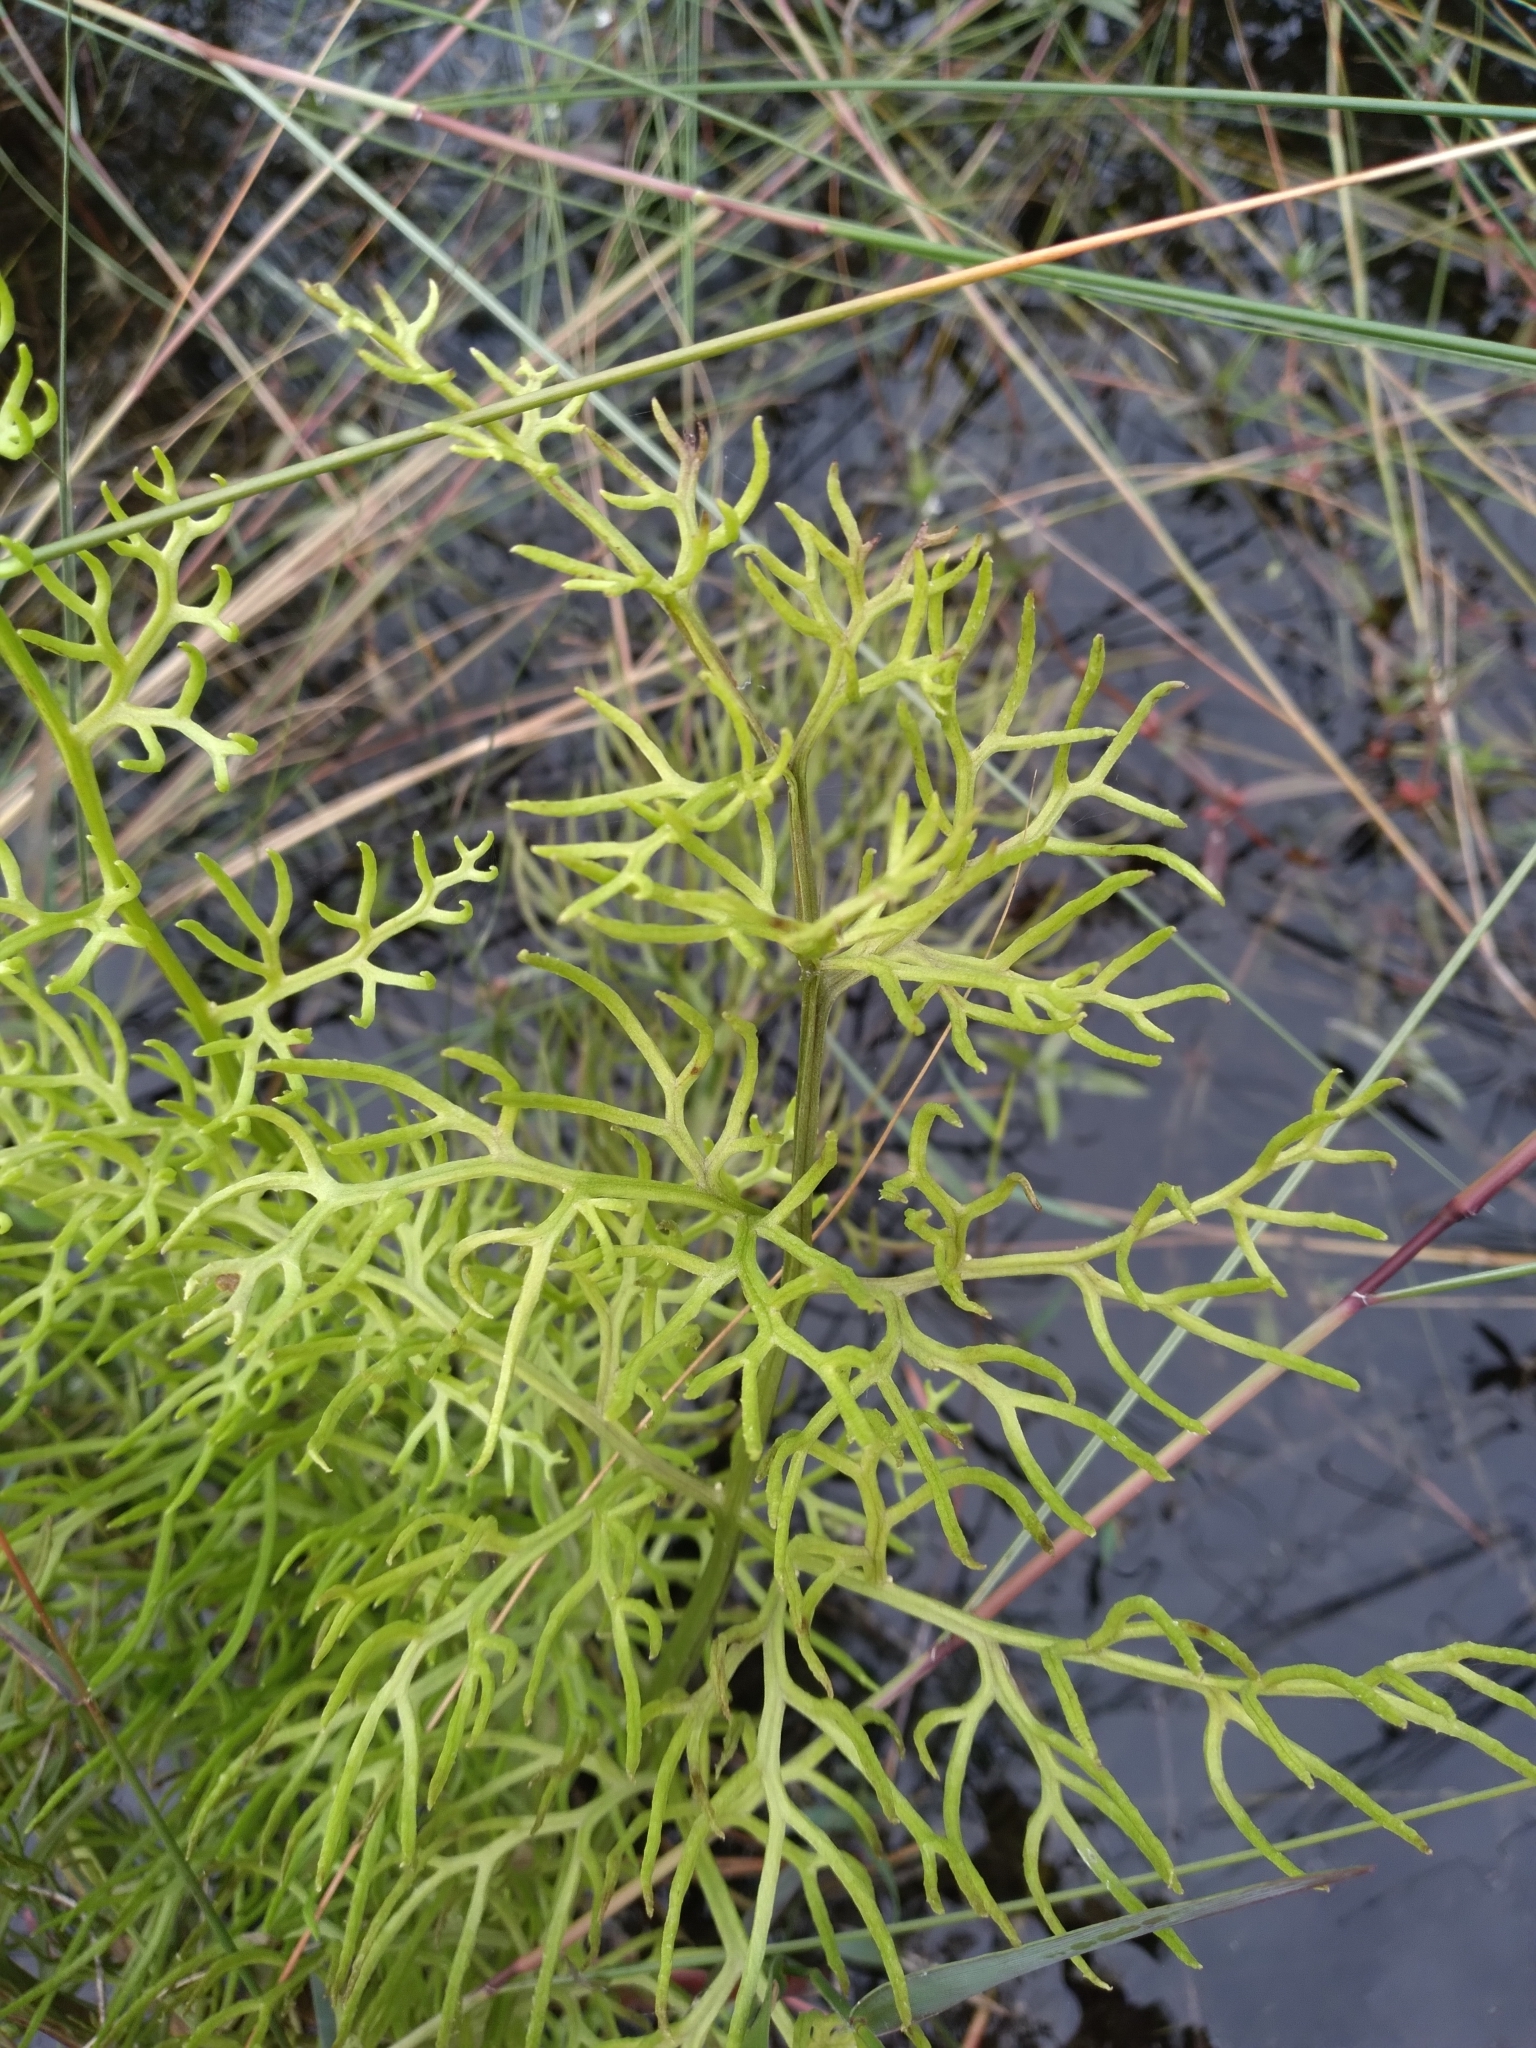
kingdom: Plantae
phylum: Tracheophyta
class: Polypodiopsida
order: Polypodiales
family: Pteridaceae
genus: Ceratopteris
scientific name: Ceratopteris thalictroides
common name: Water fern
